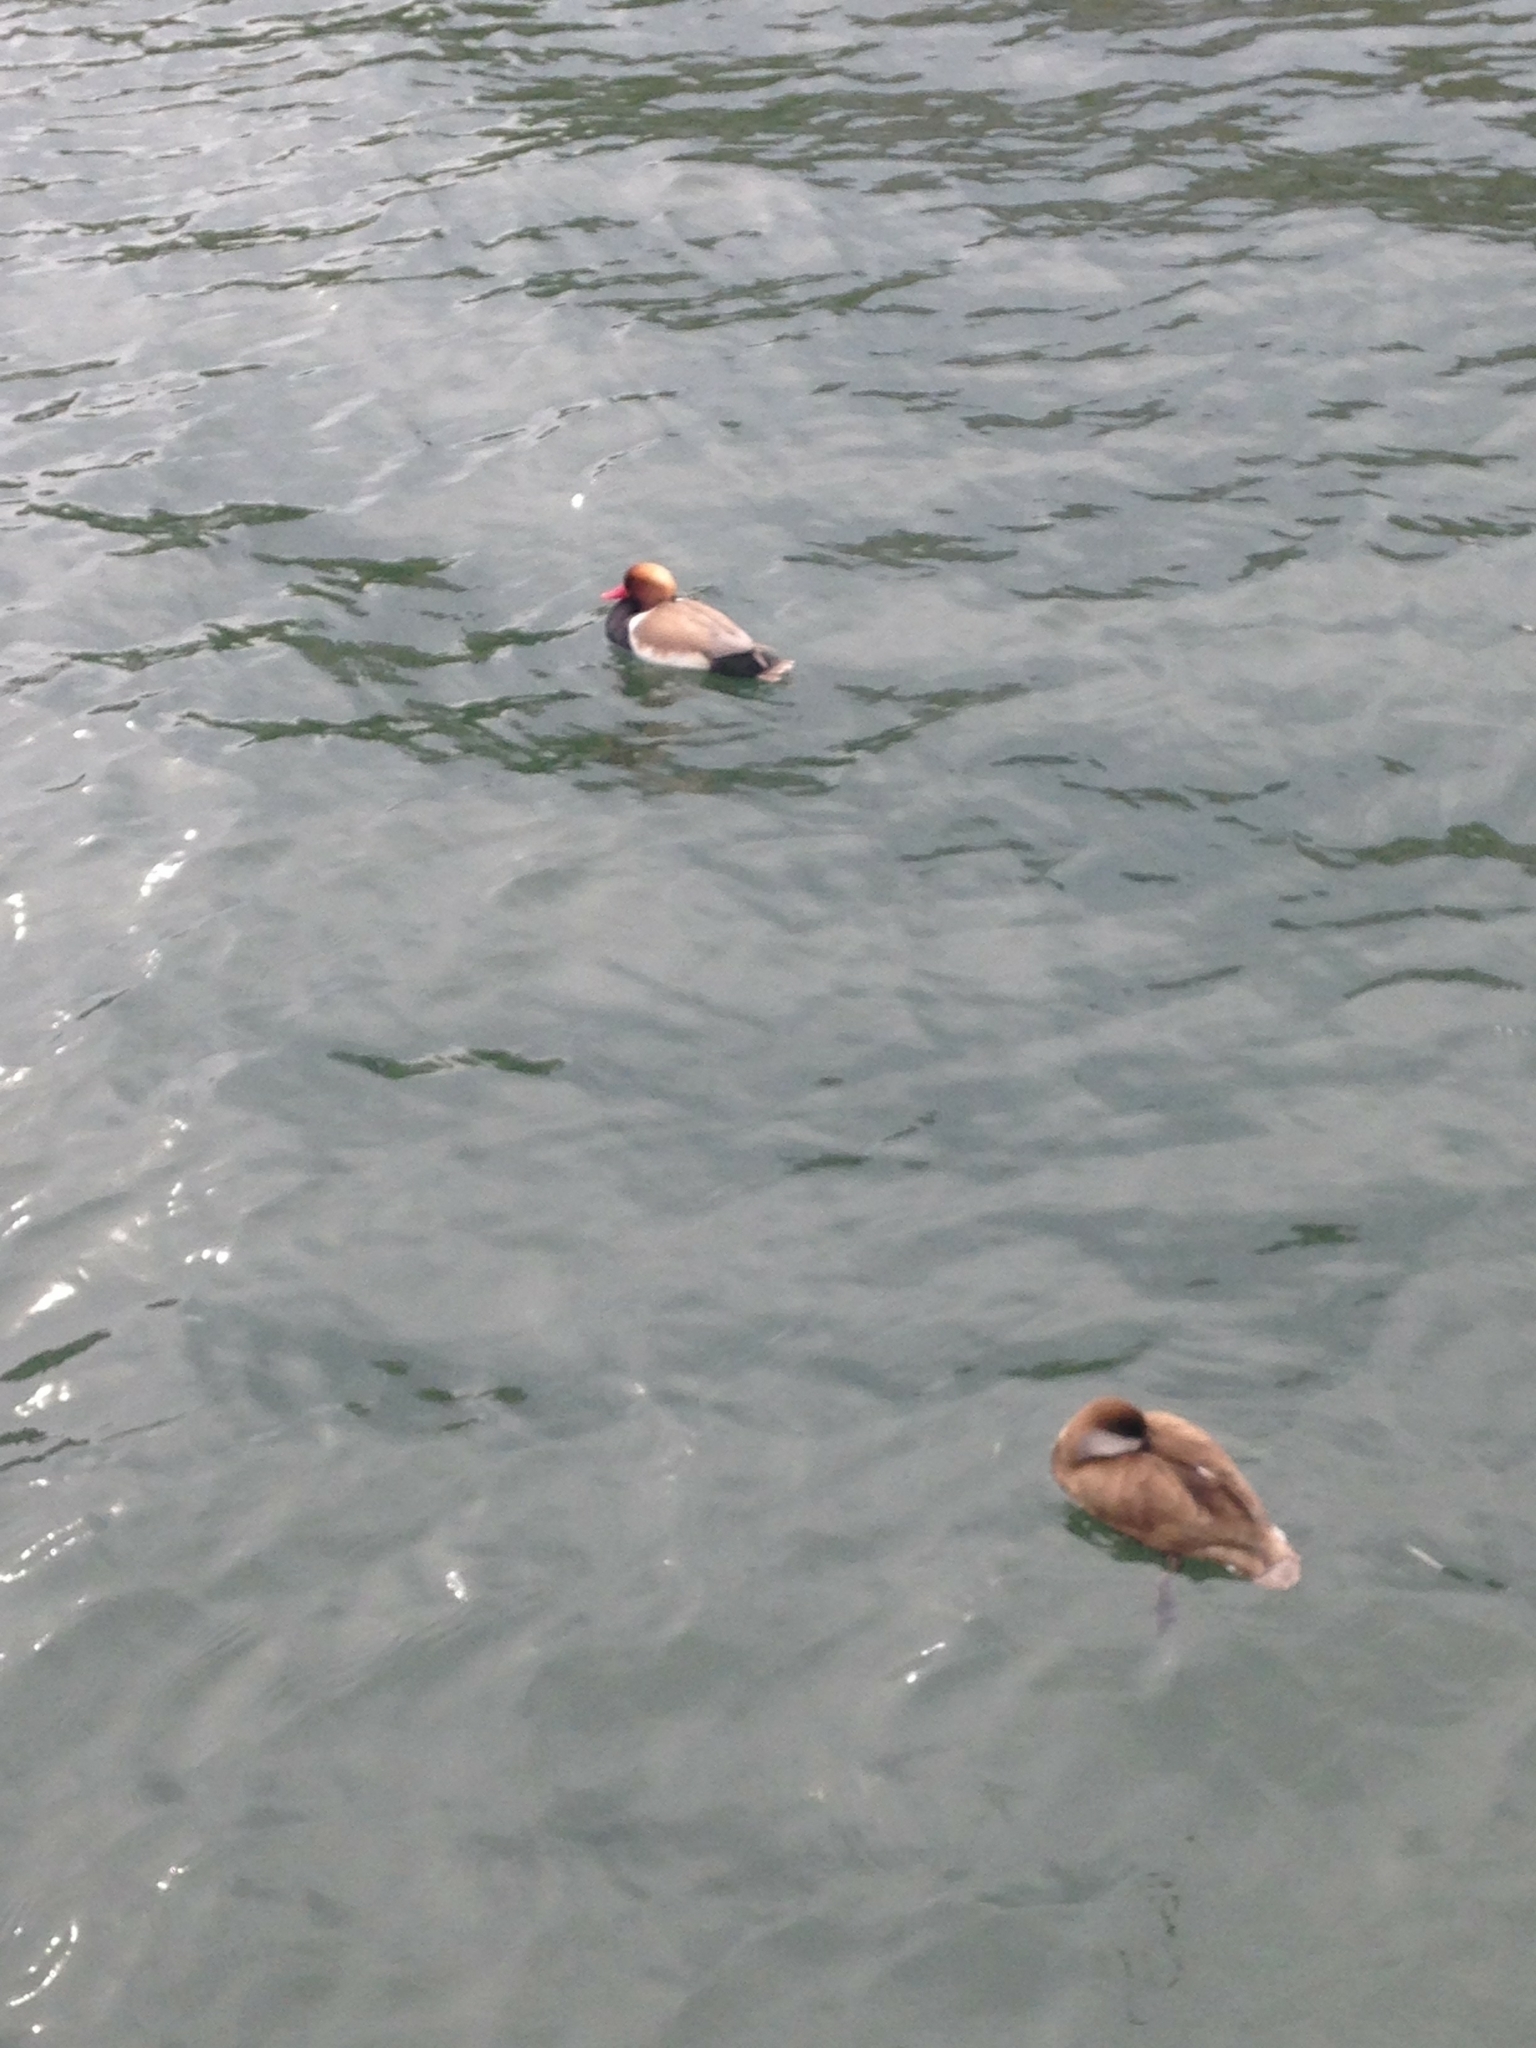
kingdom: Animalia
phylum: Chordata
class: Aves
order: Anseriformes
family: Anatidae
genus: Netta
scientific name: Netta rufina
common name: Red-crested pochard
